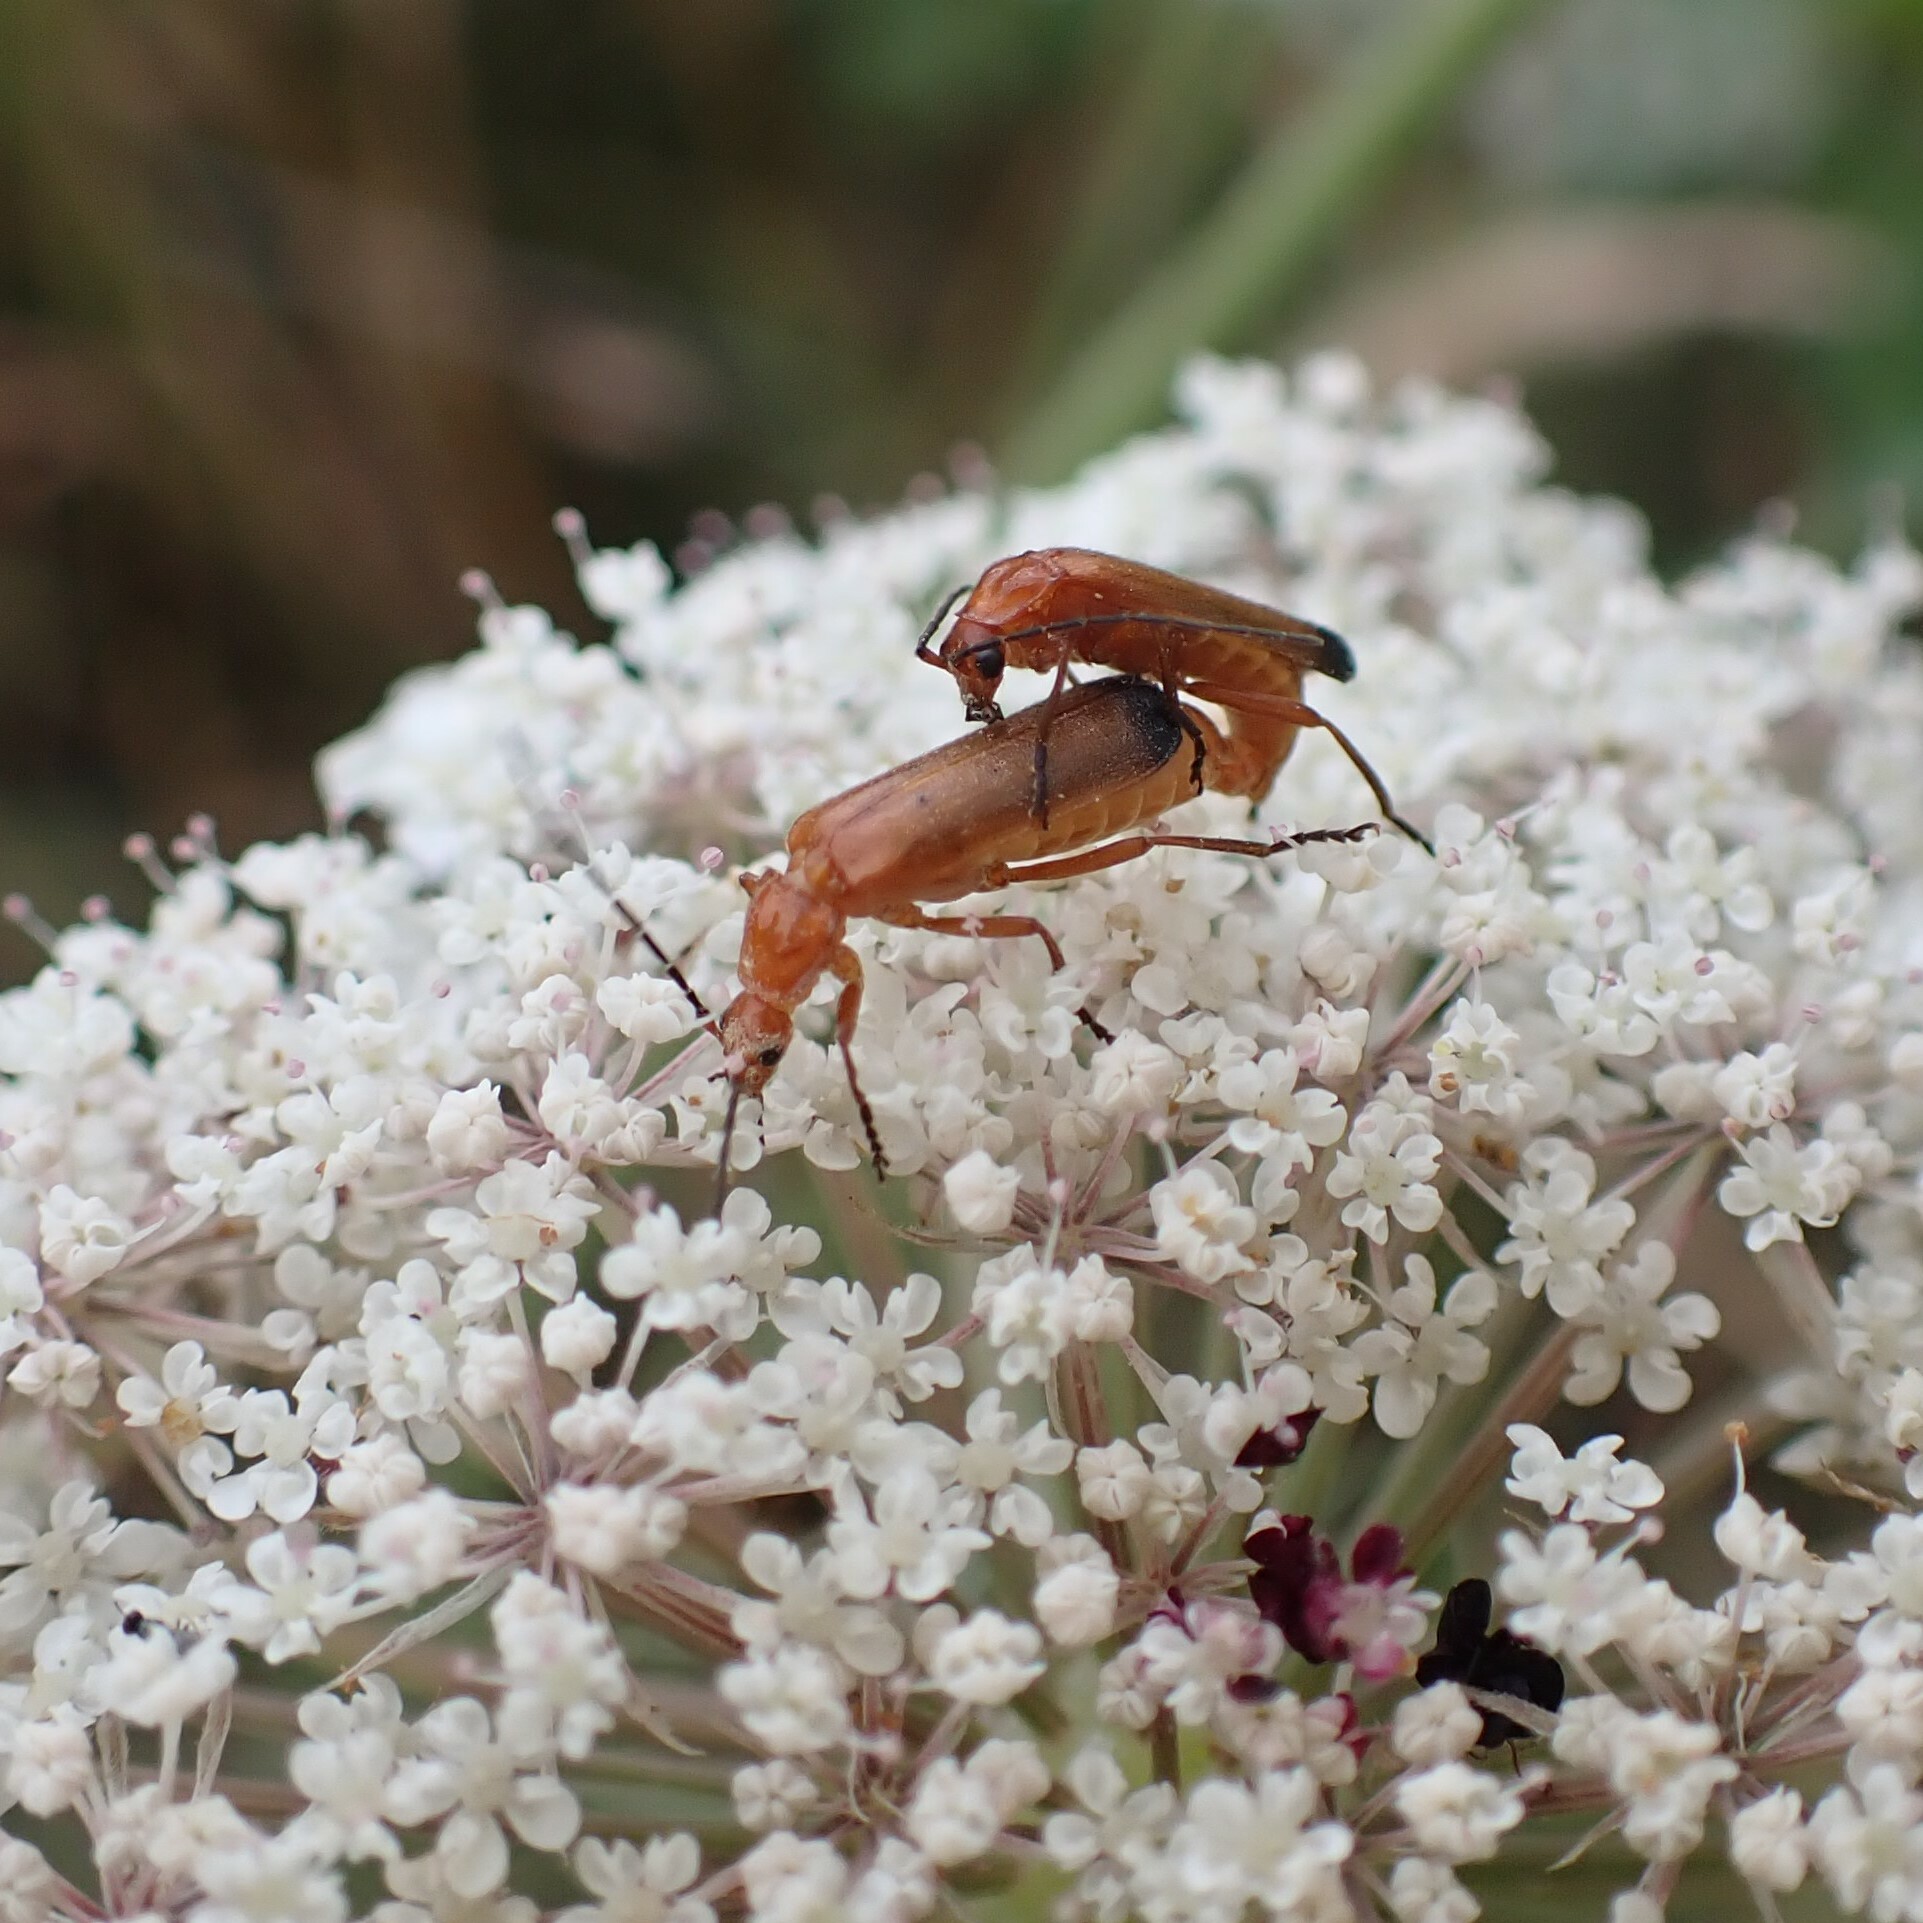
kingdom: Animalia
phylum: Arthropoda
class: Insecta
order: Coleoptera
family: Cantharidae
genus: Rhagonycha
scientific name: Rhagonycha fulva
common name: Common red soldier beetle
